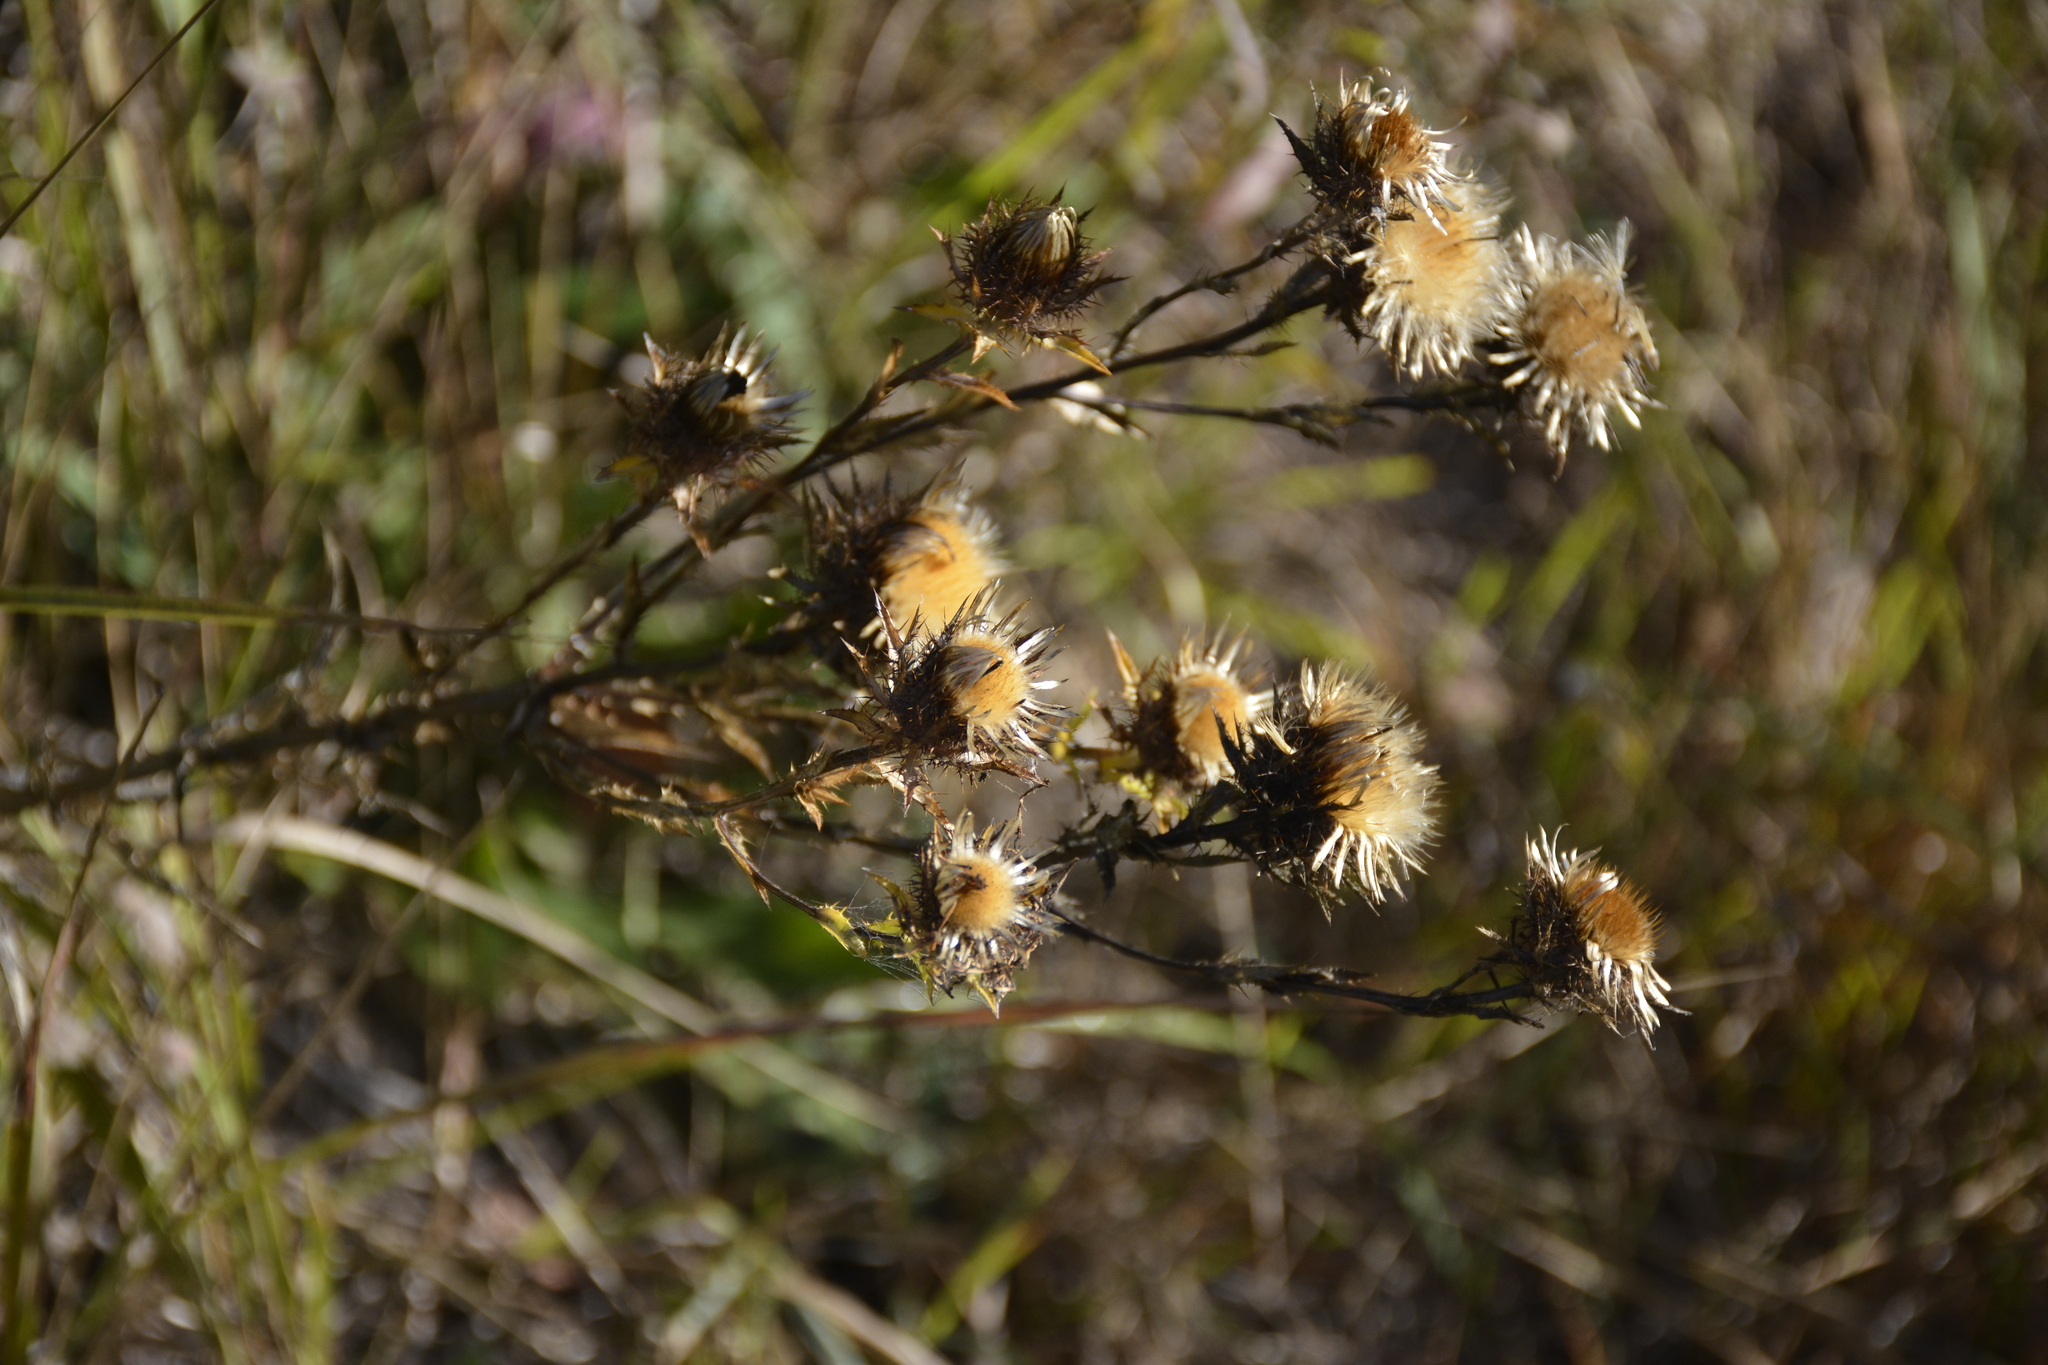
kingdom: Plantae
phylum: Tracheophyta
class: Magnoliopsida
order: Asterales
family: Asteraceae
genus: Carlina
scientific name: Carlina biebersteinii
